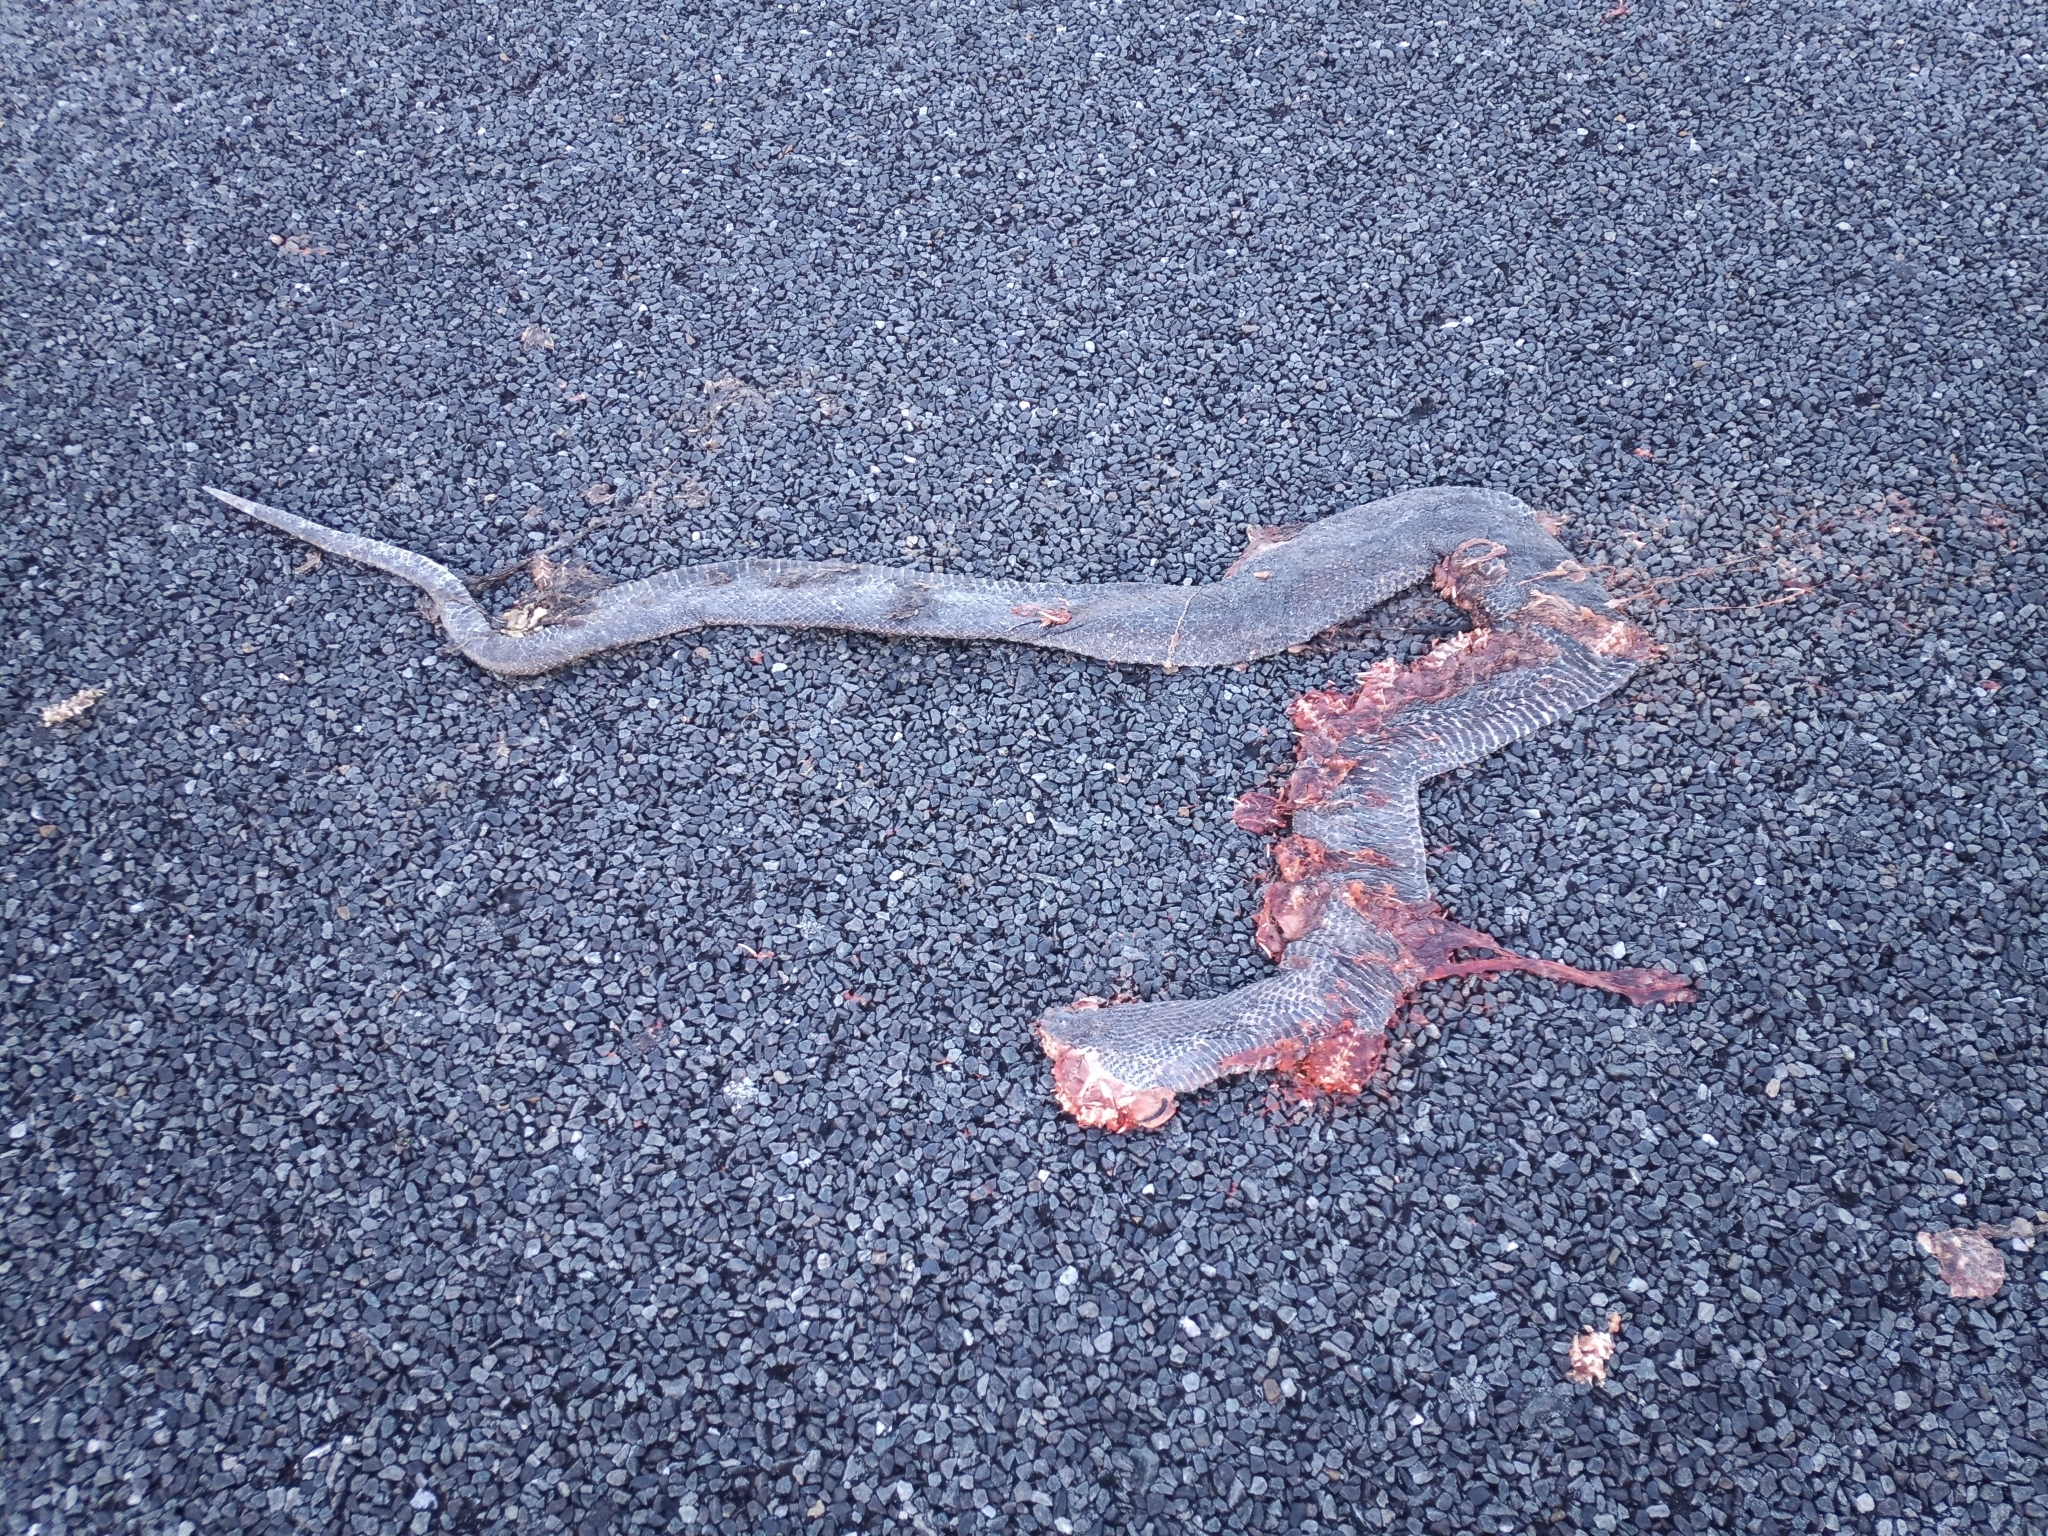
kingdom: Animalia
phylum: Chordata
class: Squamata
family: Pseudaspididae
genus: Pseudaspis
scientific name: Pseudaspis cana
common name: Mole snake
